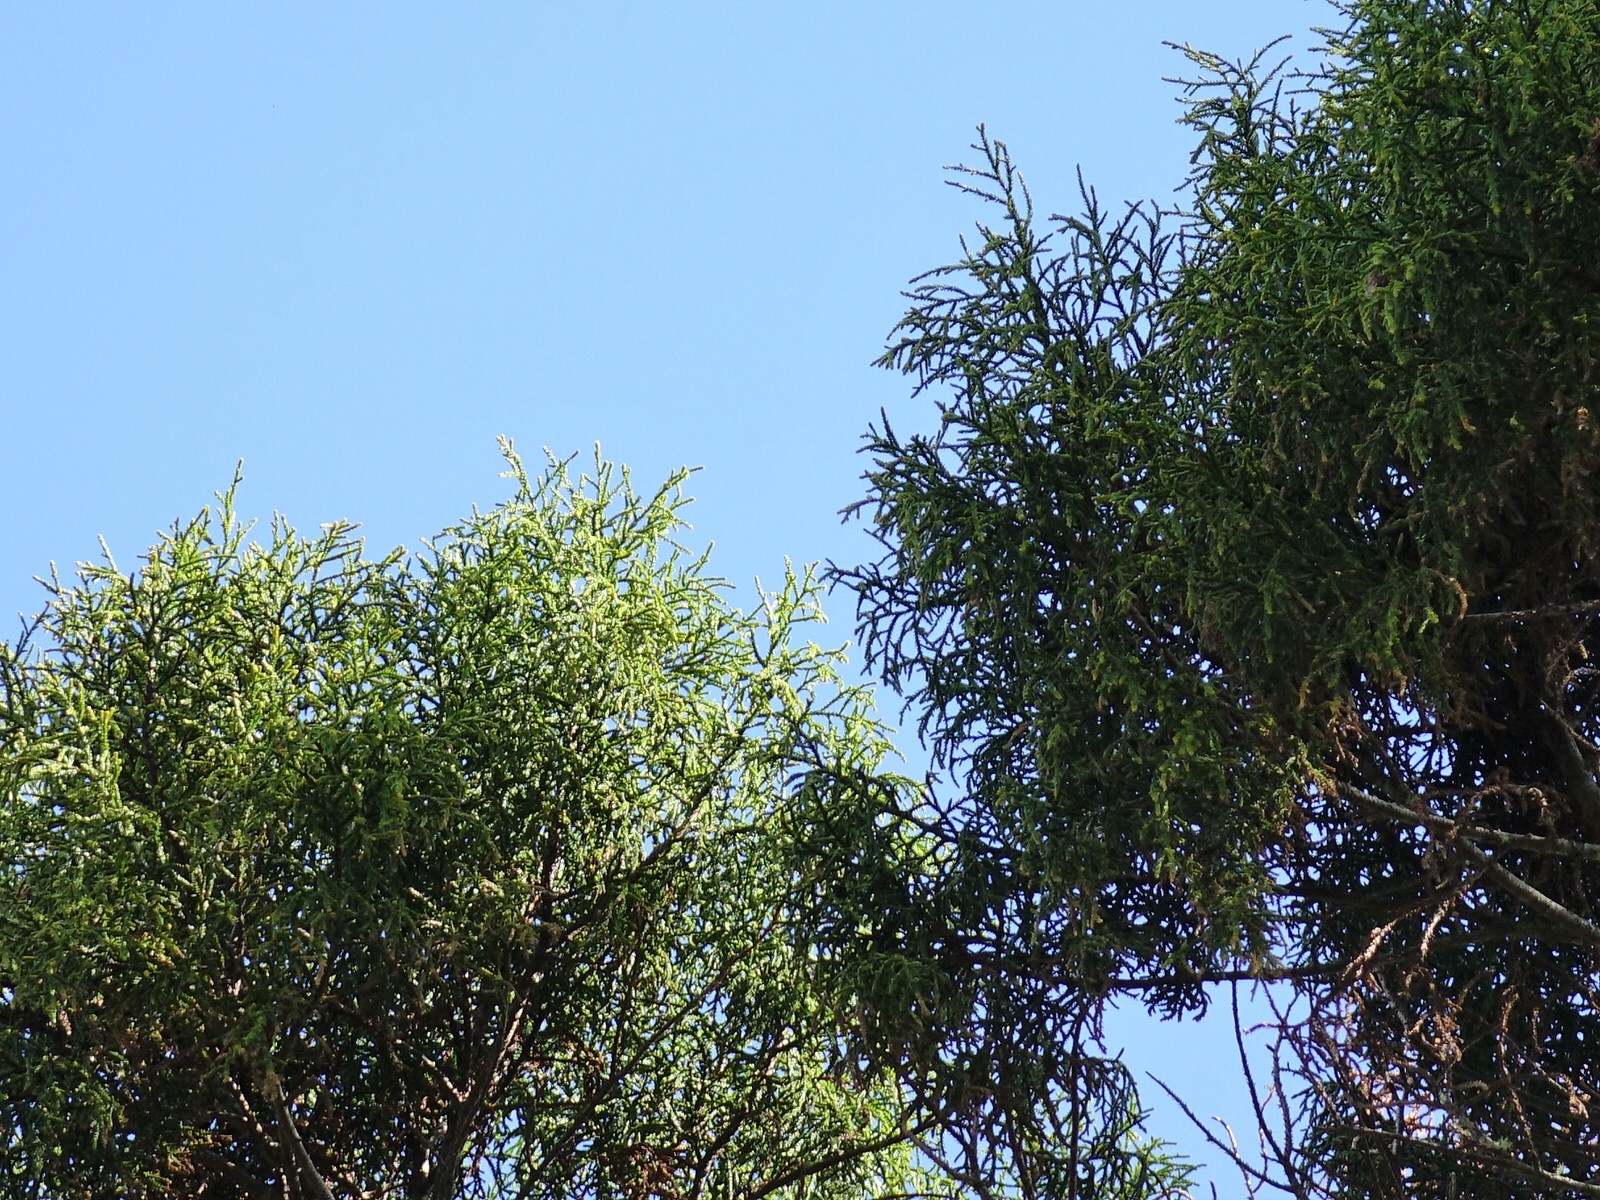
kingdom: Plantae
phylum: Tracheophyta
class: Pinopsida
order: Pinales
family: Podocarpaceae
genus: Dacrydium
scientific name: Dacrydium cupressinum
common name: Red pine
